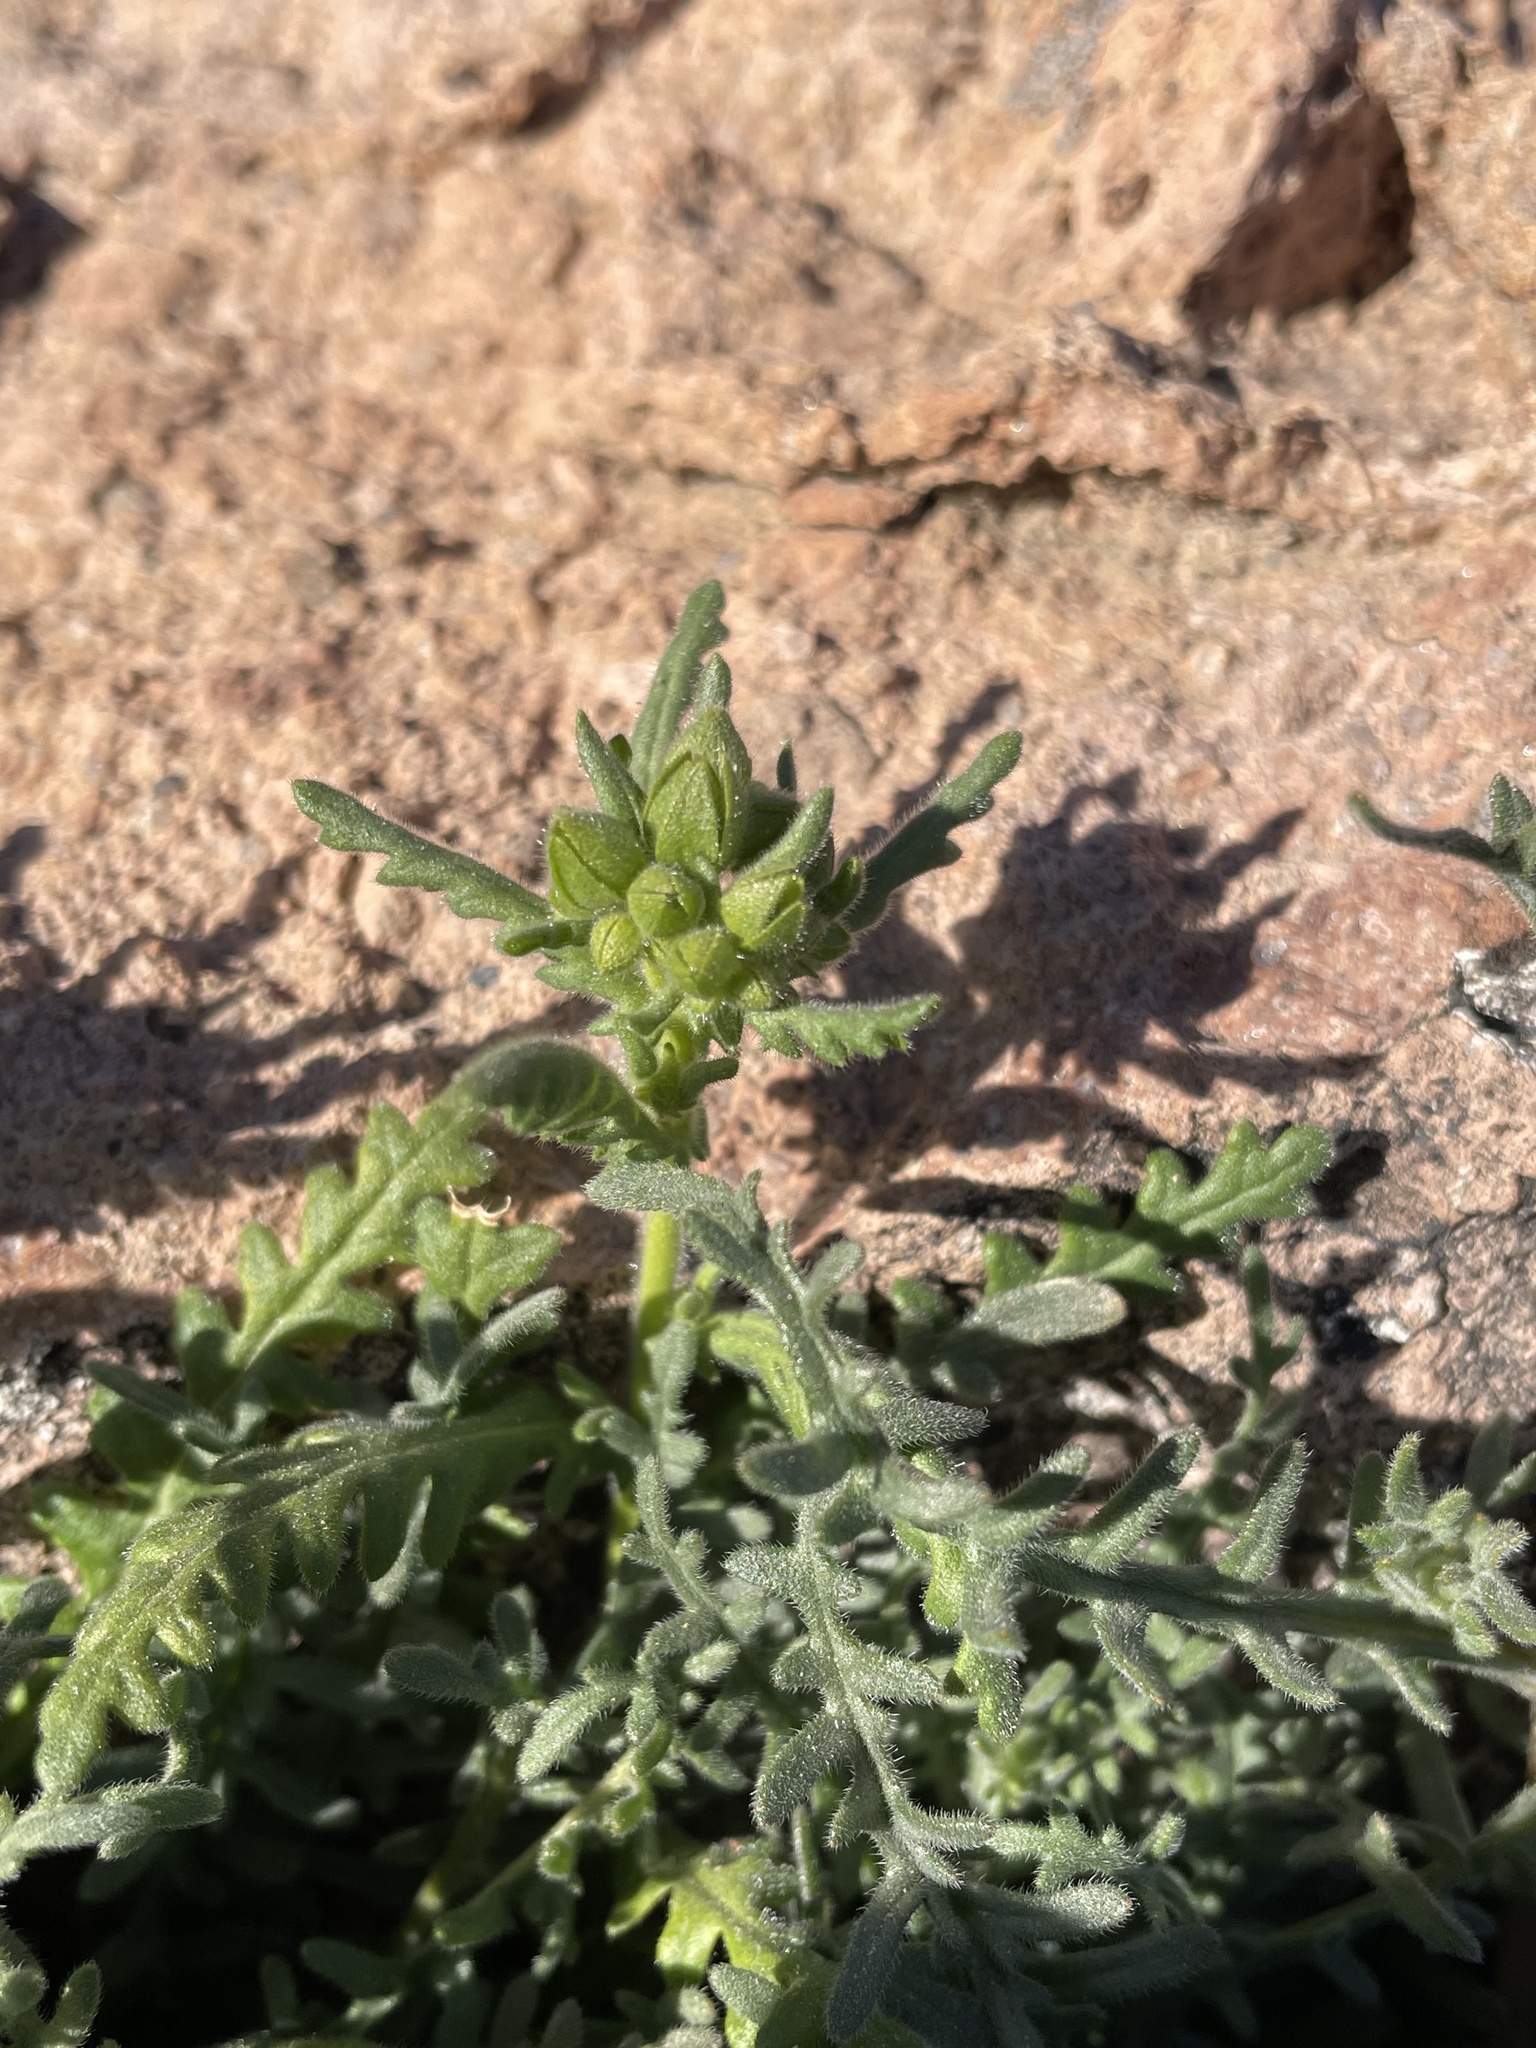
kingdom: Plantae
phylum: Tracheophyta
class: Magnoliopsida
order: Boraginales
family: Hydrophyllaceae
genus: Emmenanthe
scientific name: Emmenanthe penduliflora
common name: Whispering-bells
